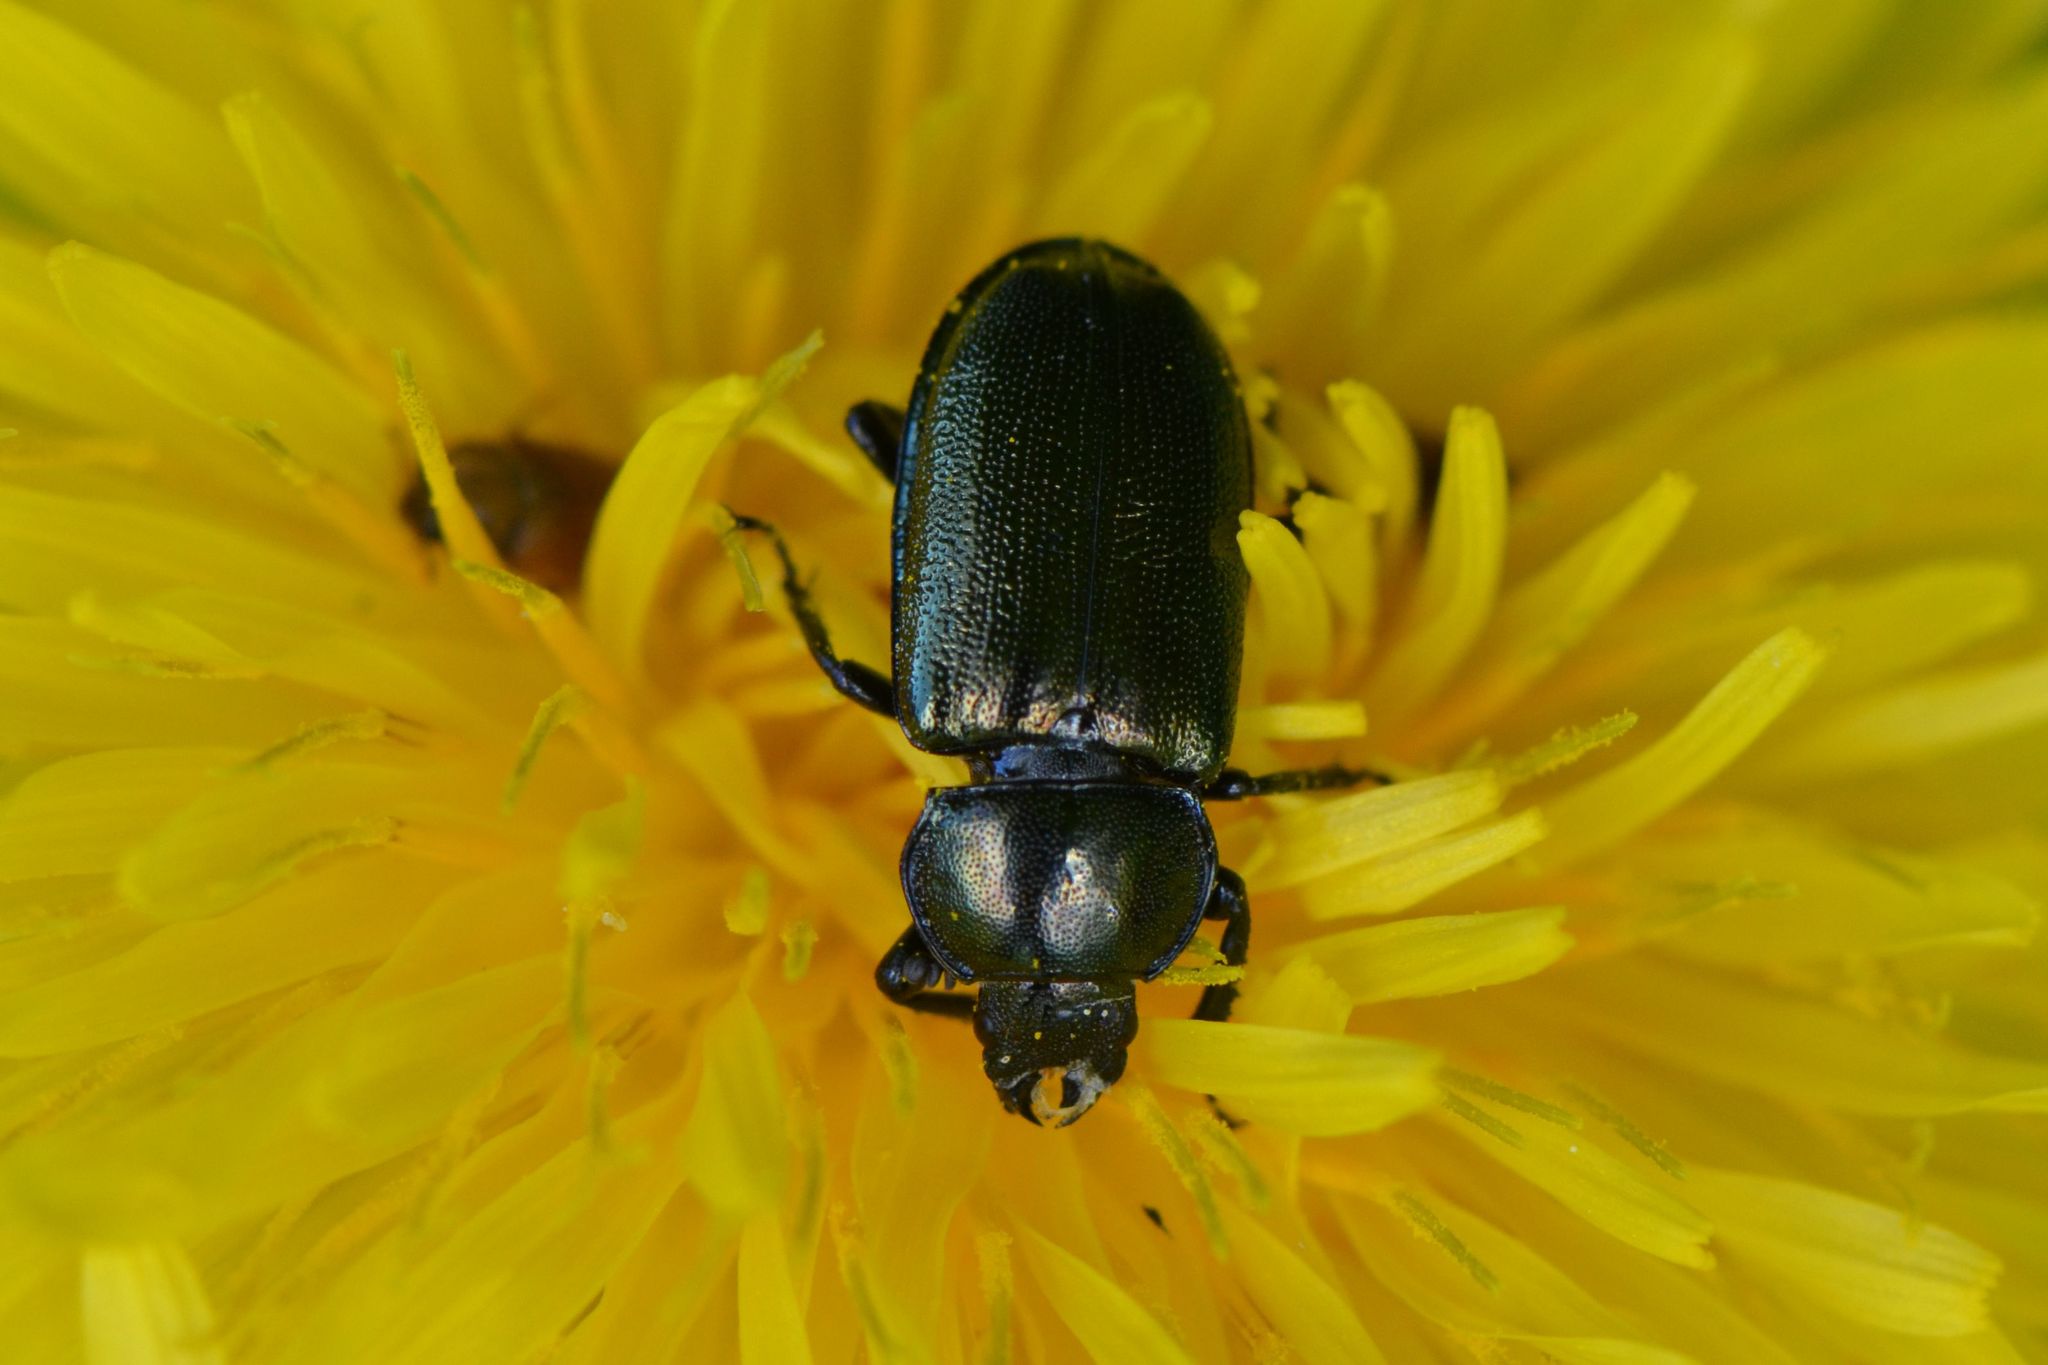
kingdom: Animalia
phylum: Arthropoda
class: Insecta
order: Coleoptera
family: Lucanidae
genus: Platycerus
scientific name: Platycerus caraboides
